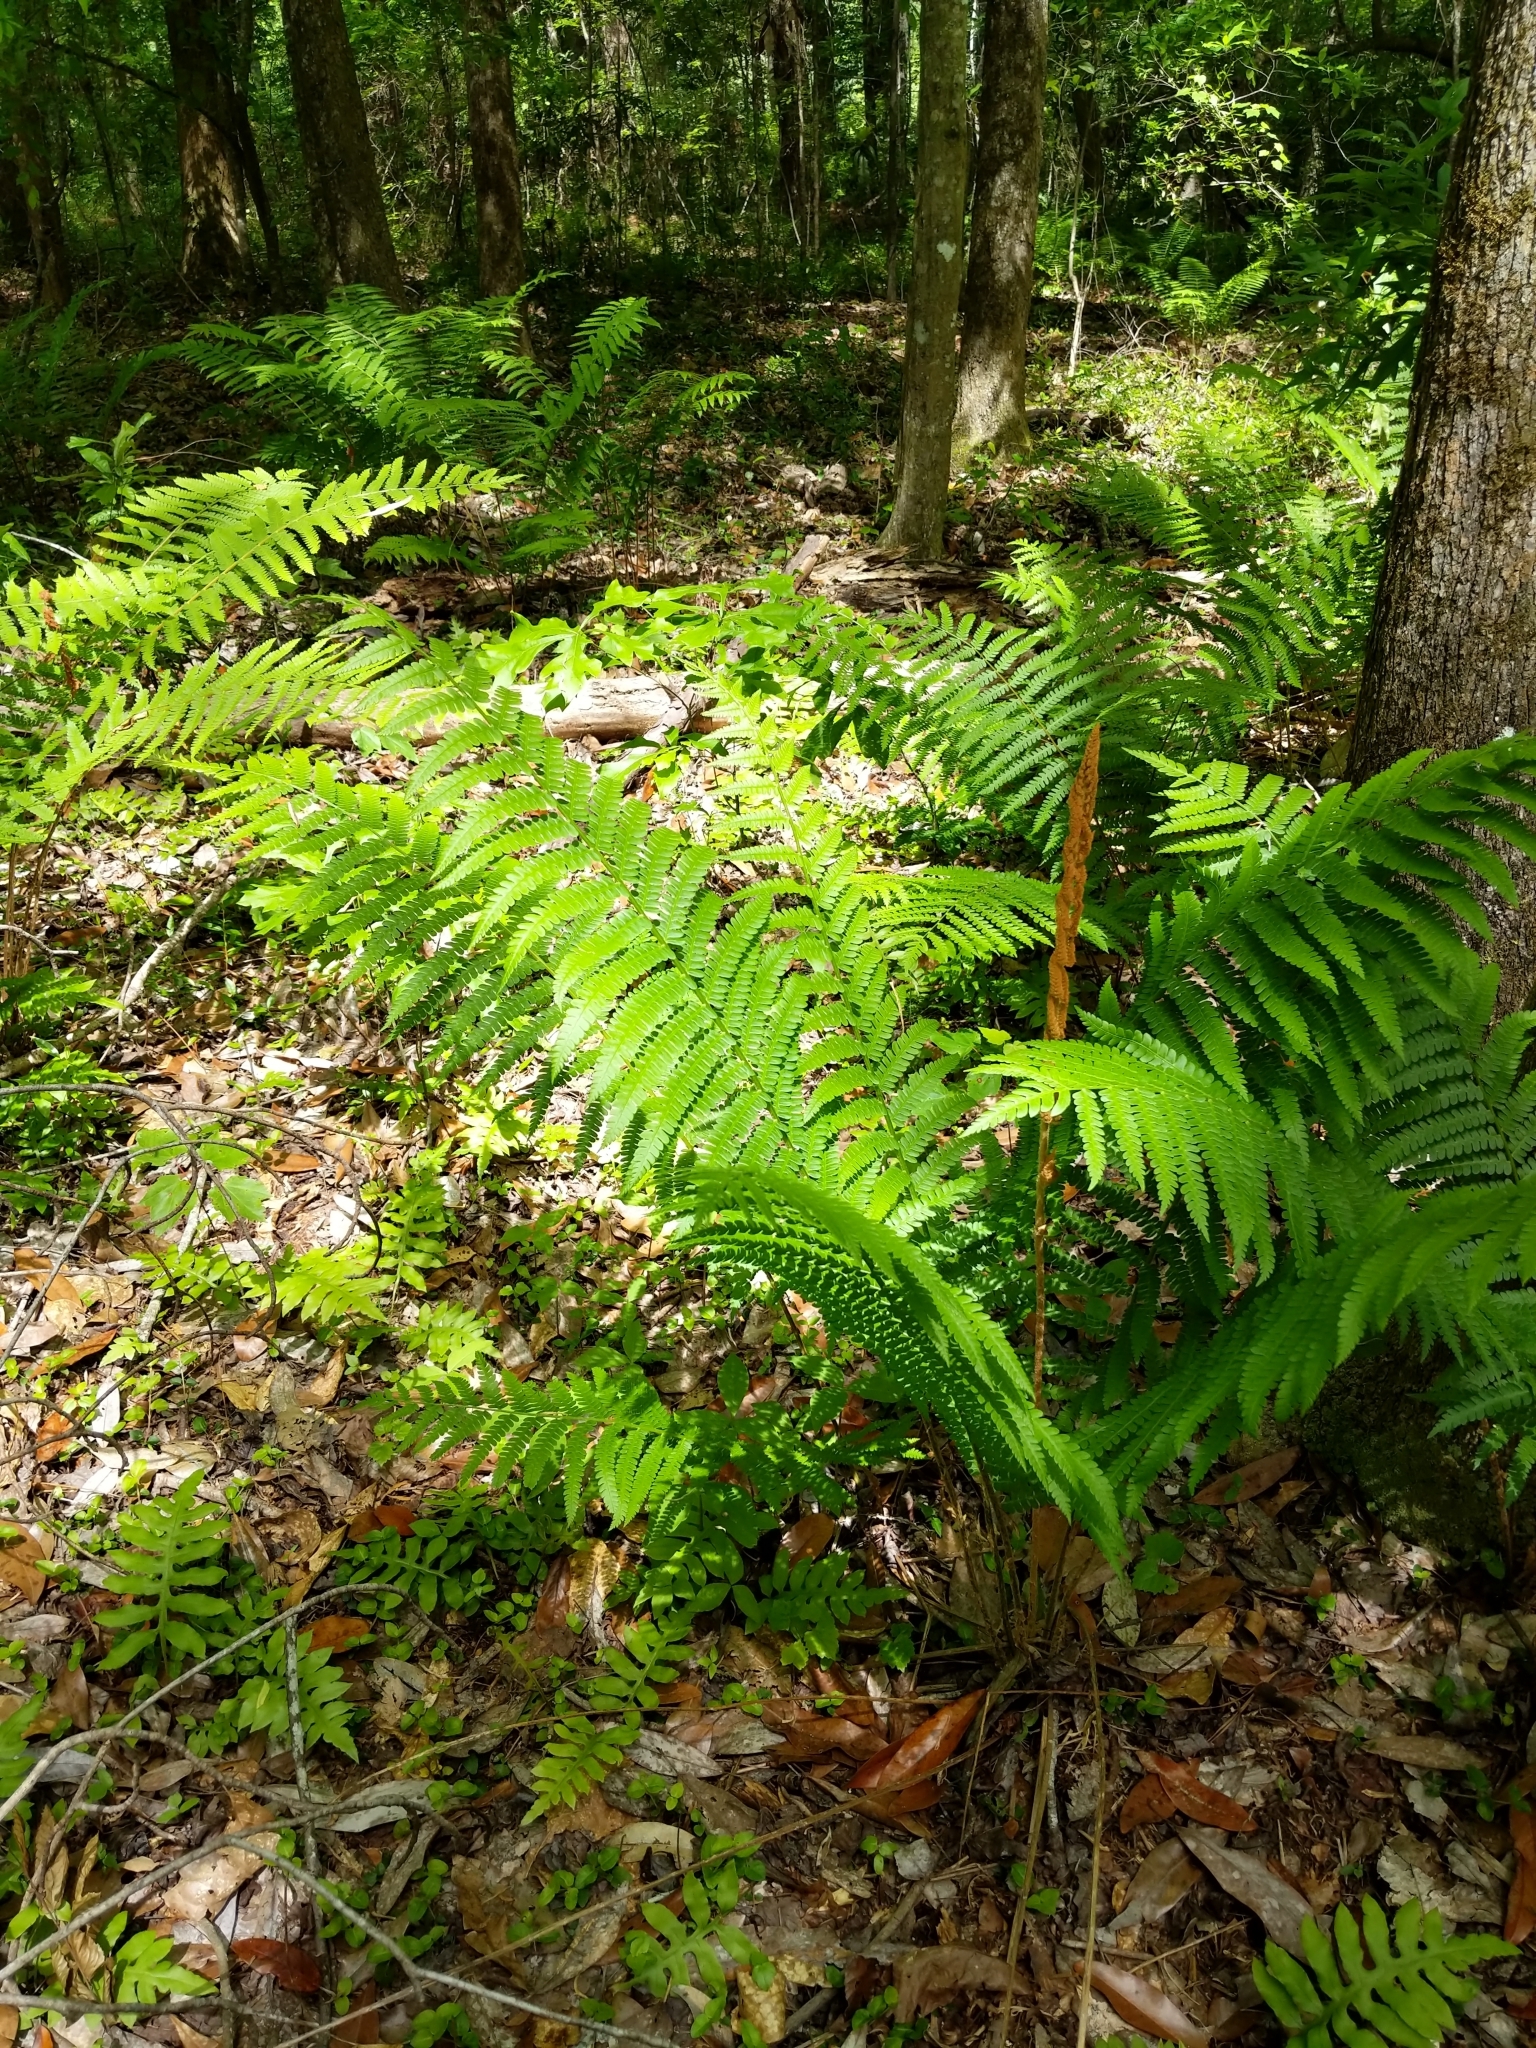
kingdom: Plantae
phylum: Tracheophyta
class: Polypodiopsida
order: Polypodiales
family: Thelypteridaceae
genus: Macrothelypteris
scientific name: Macrothelypteris torresiana
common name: Swordfern
